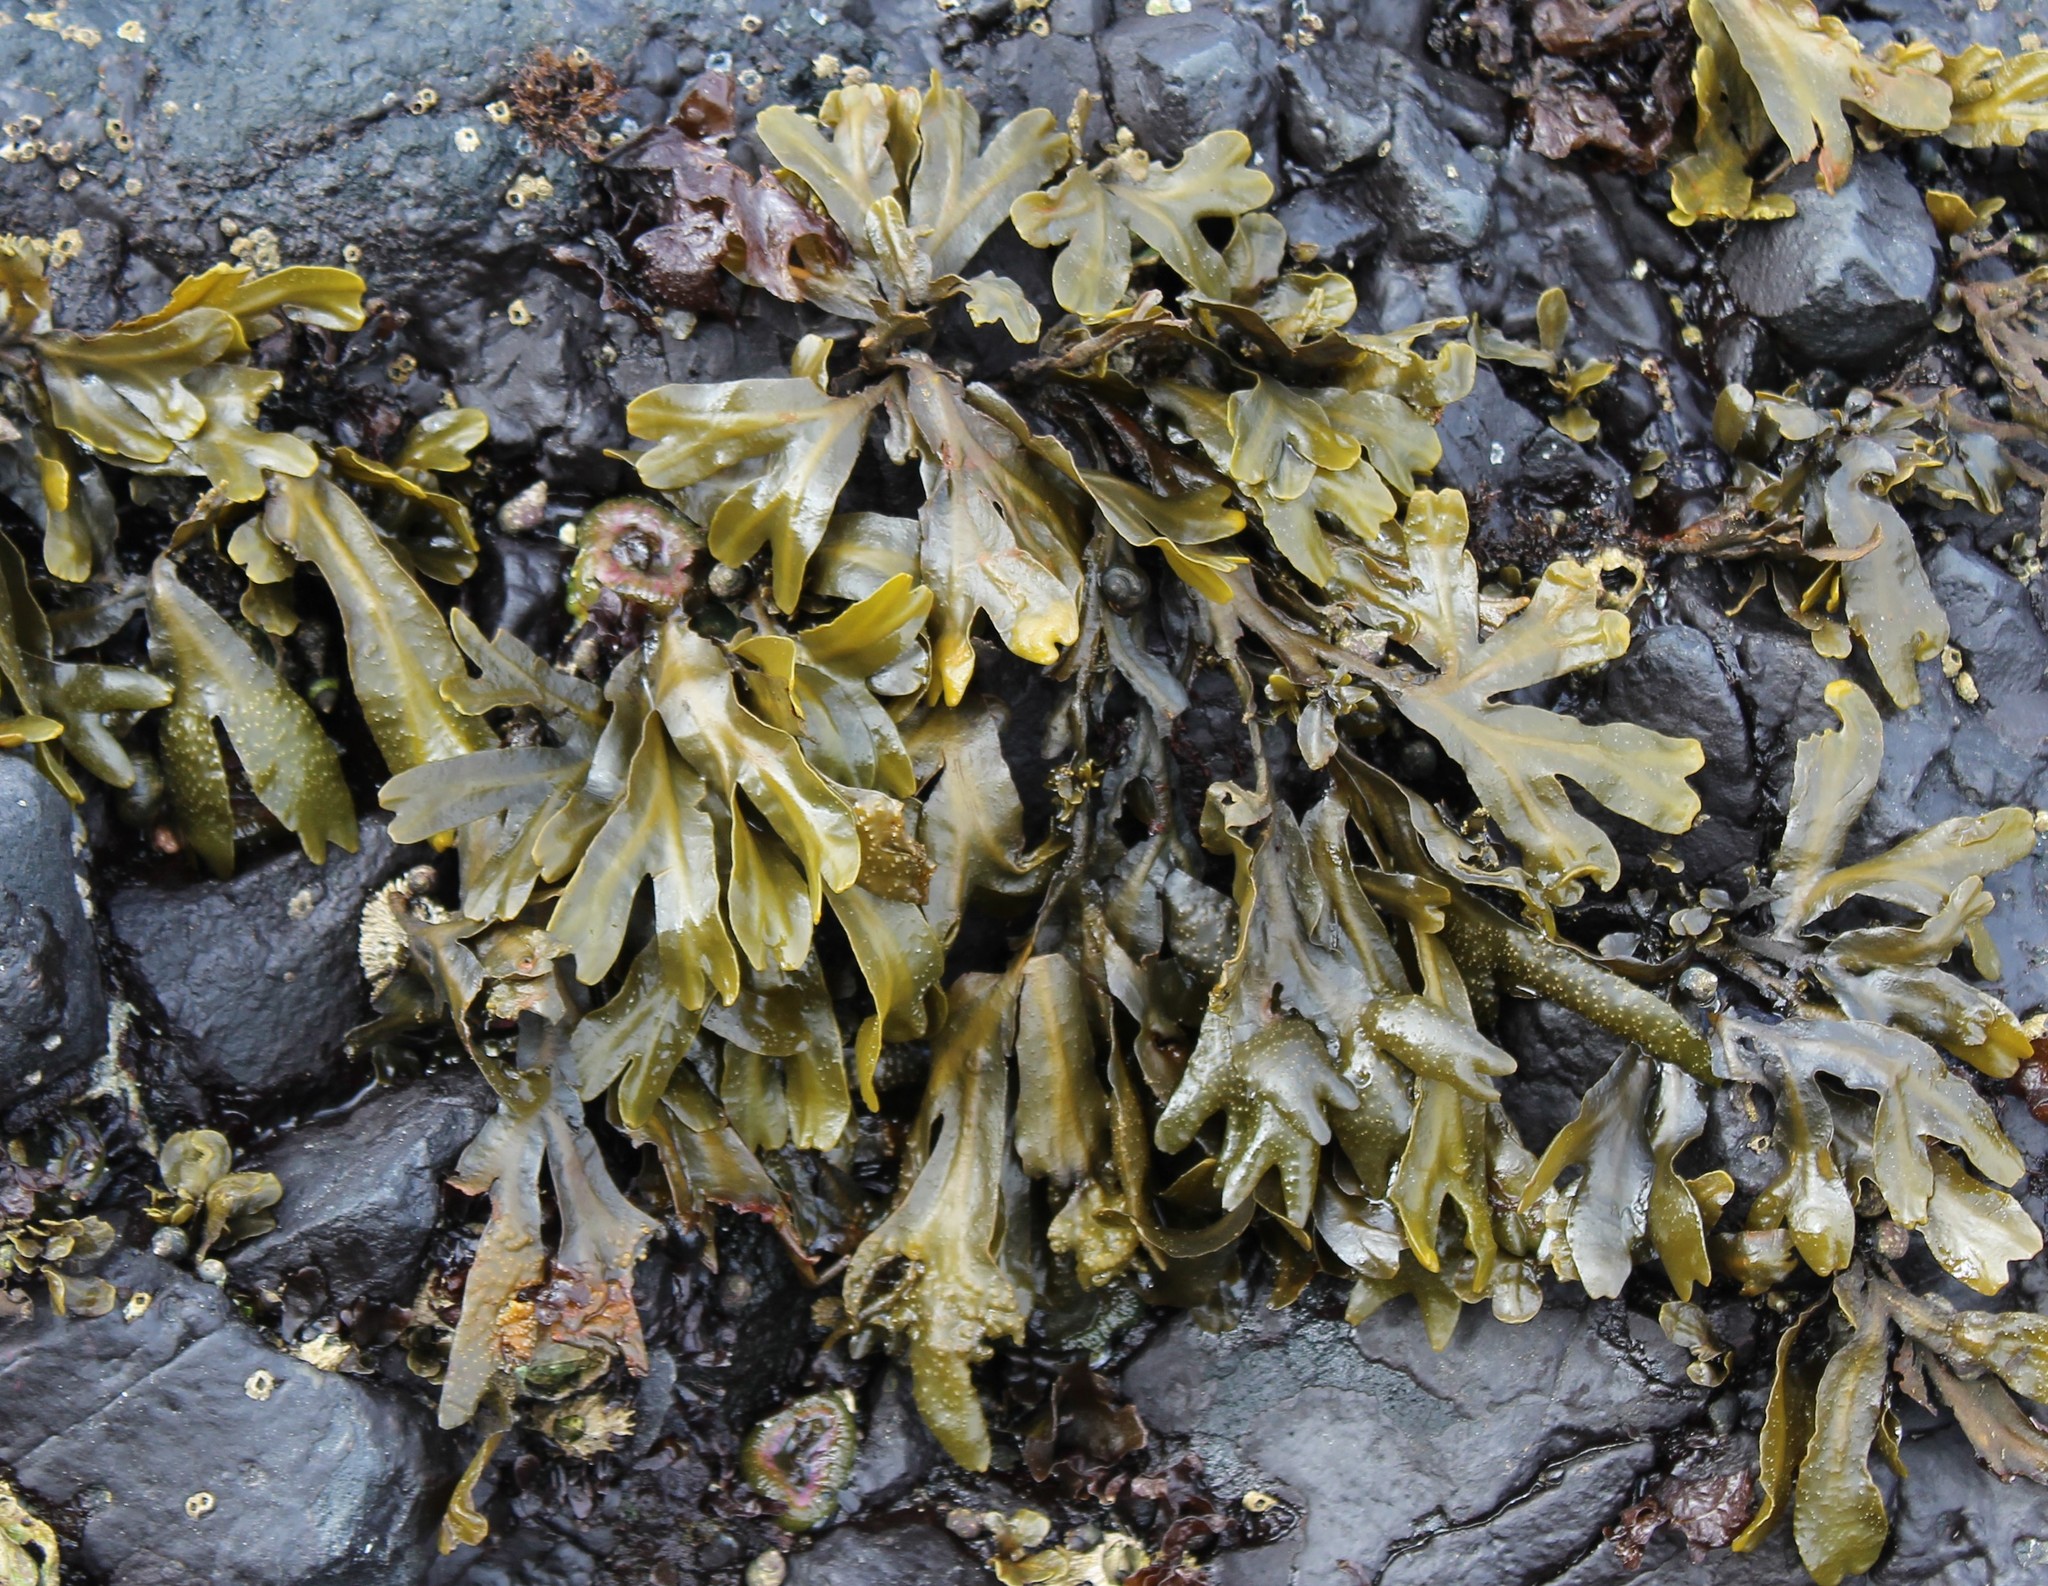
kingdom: Chromista
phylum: Ochrophyta
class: Phaeophyceae
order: Fucales
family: Fucaceae
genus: Fucus
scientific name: Fucus distichus
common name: Rockweed
